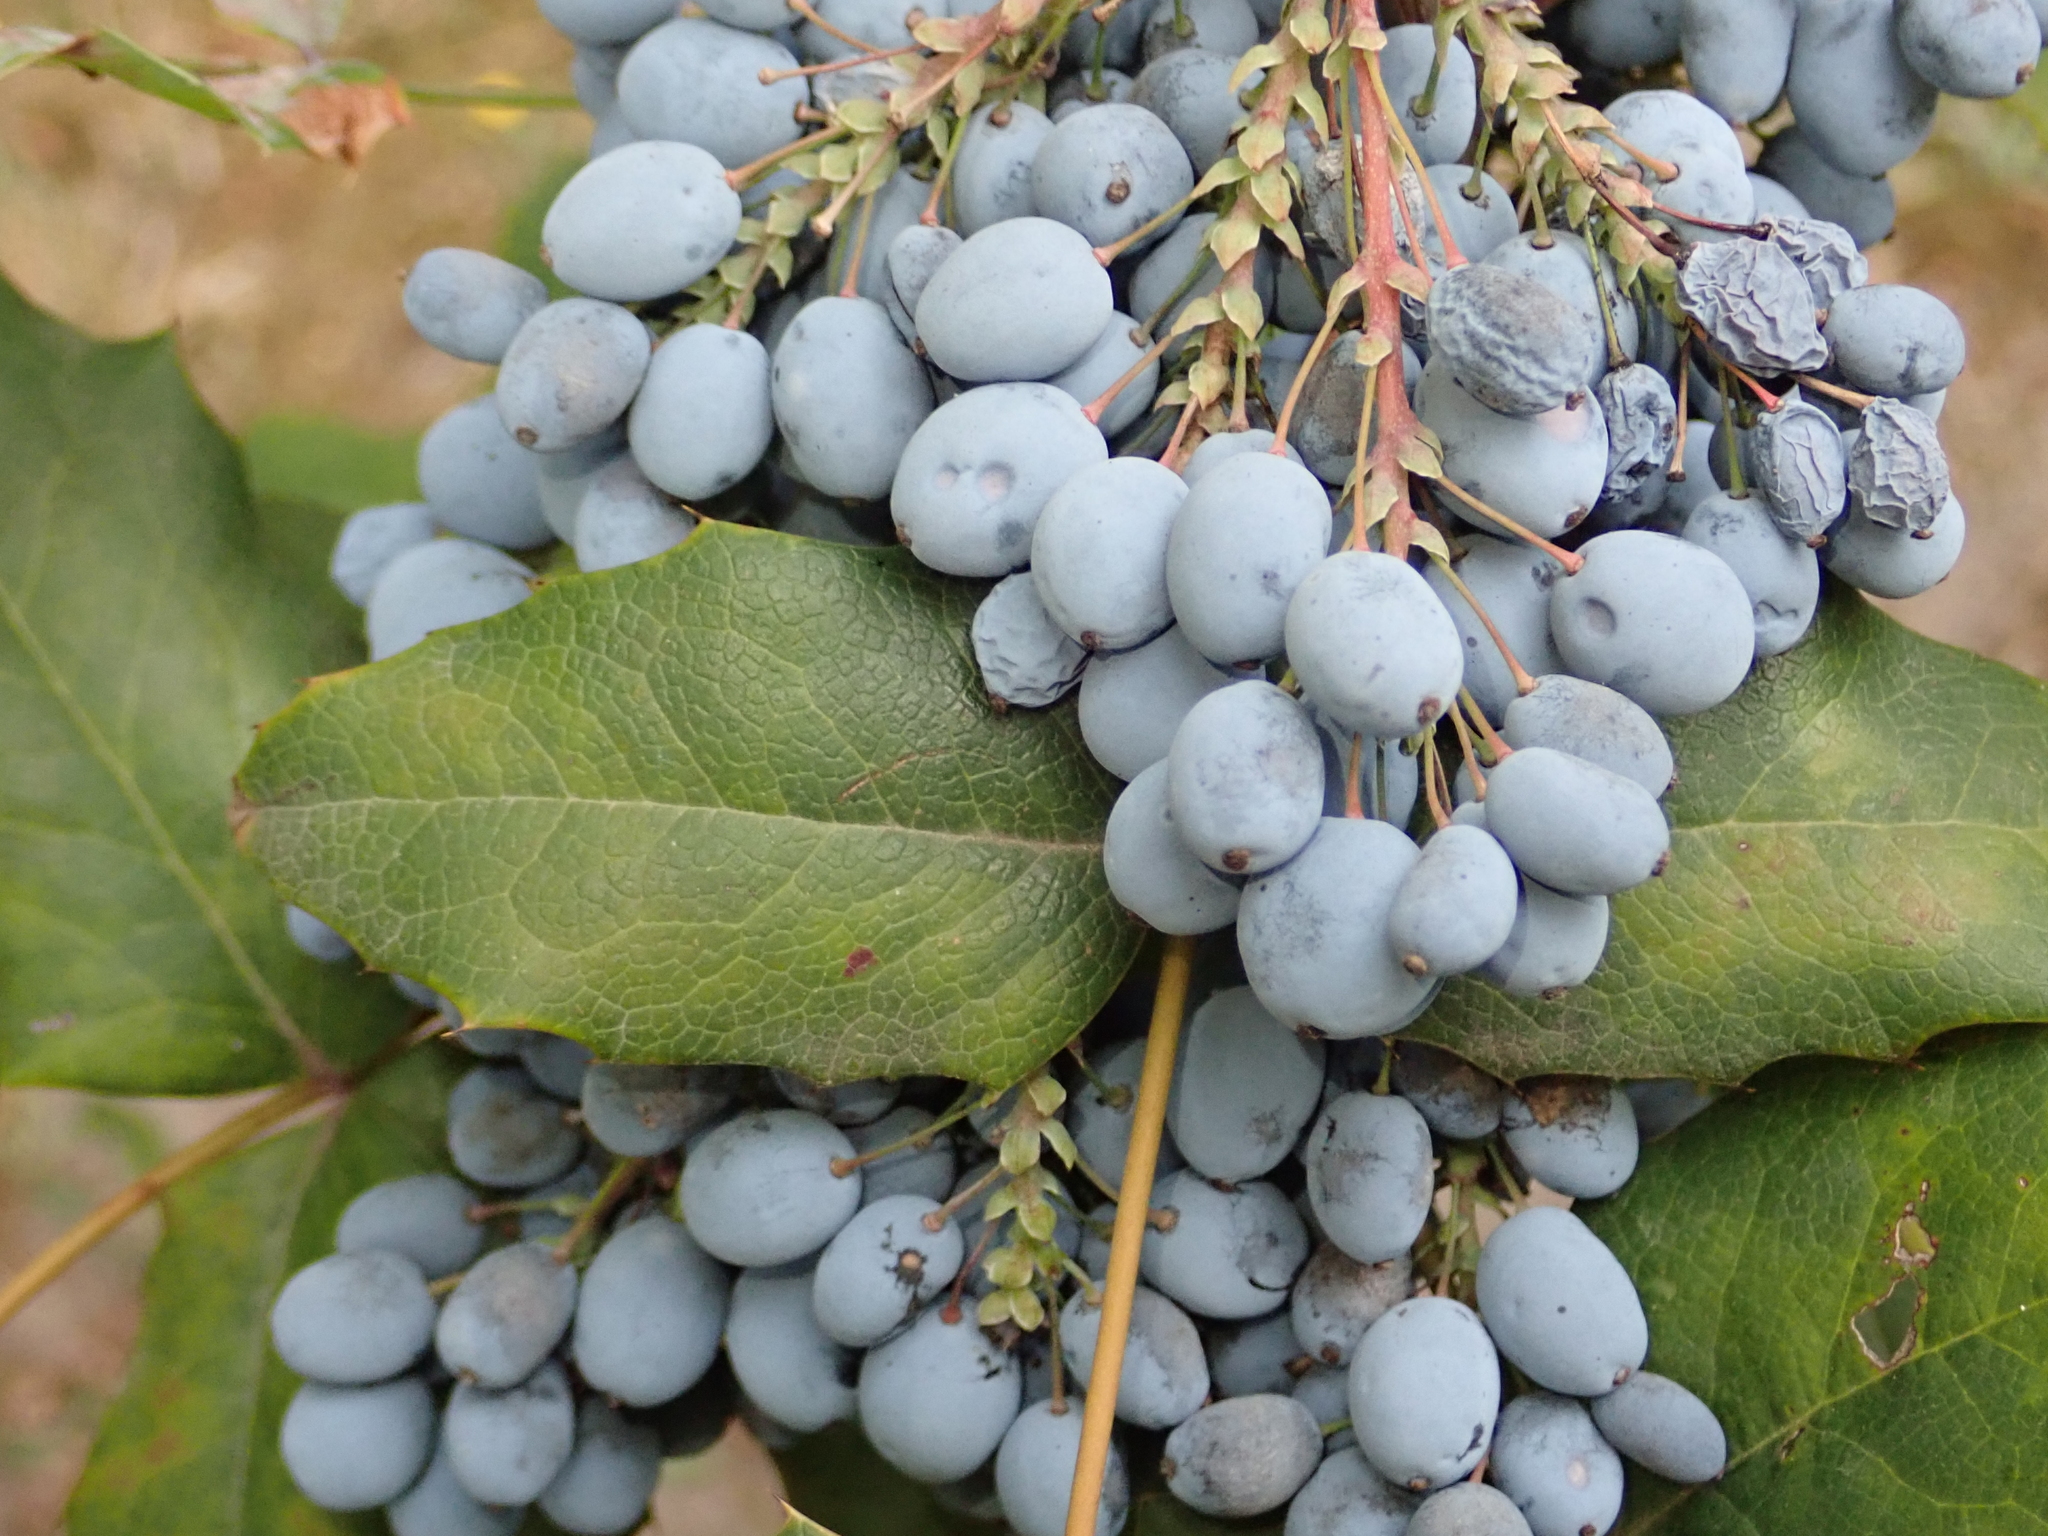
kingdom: Plantae
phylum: Tracheophyta
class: Magnoliopsida
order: Ranunculales
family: Berberidaceae
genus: Mahonia
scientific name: Mahonia aquifolium
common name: Oregon-grape
